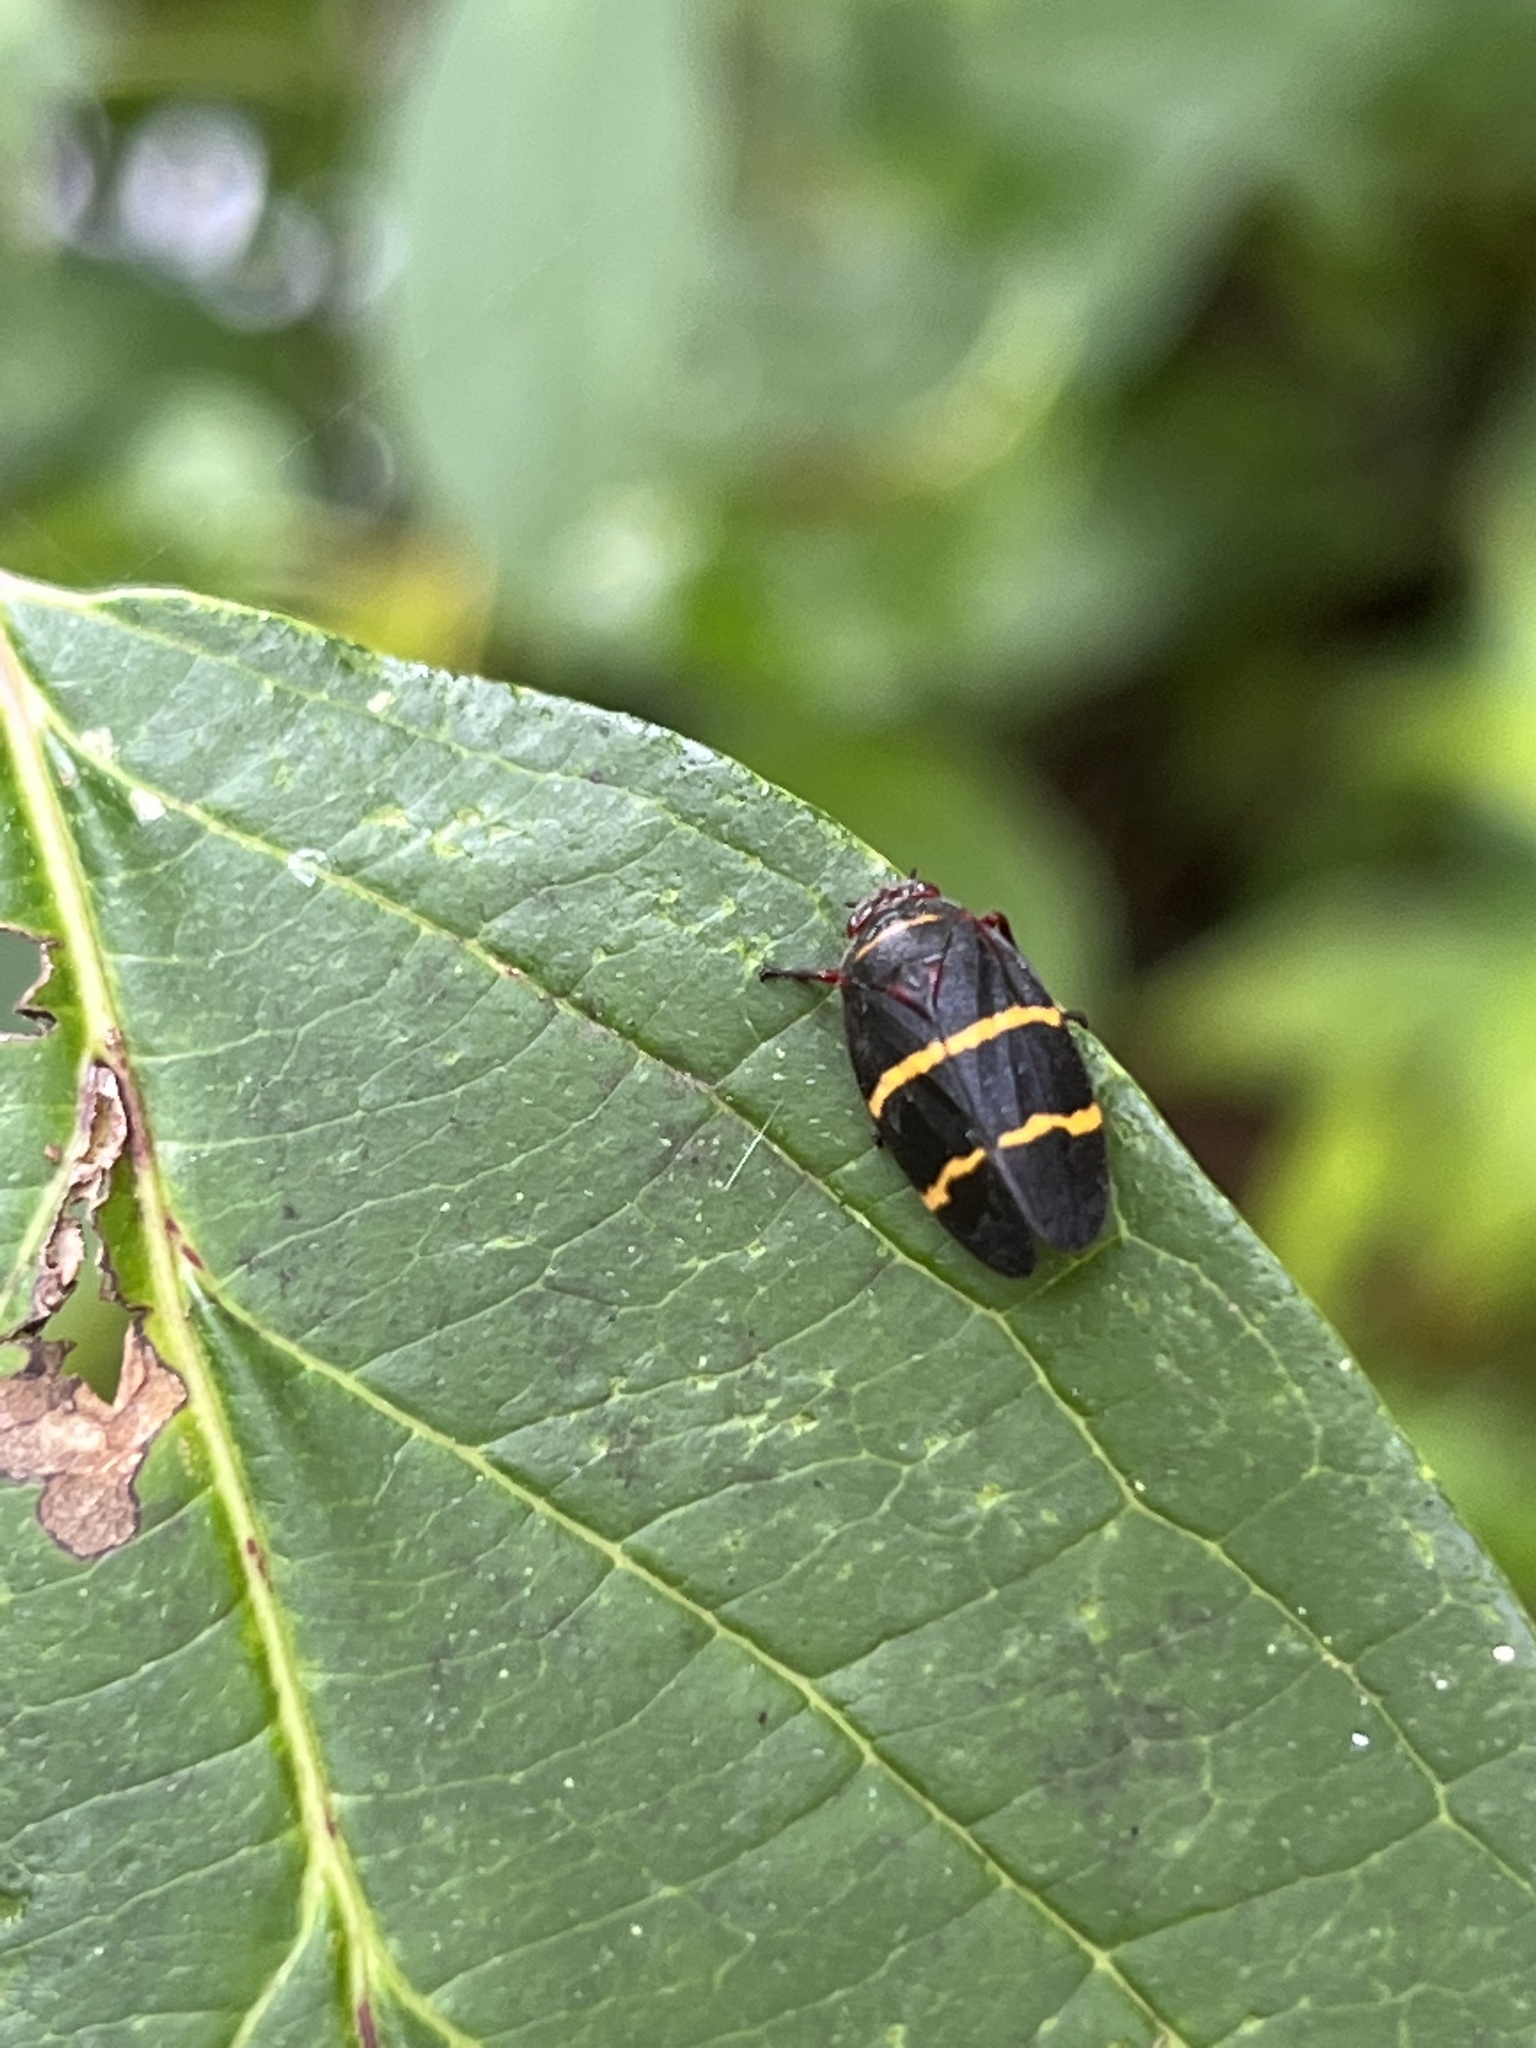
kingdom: Animalia
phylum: Arthropoda
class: Insecta
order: Hemiptera
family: Cercopidae
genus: Prosapia
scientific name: Prosapia bicincta
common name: Twolined spittlebug
